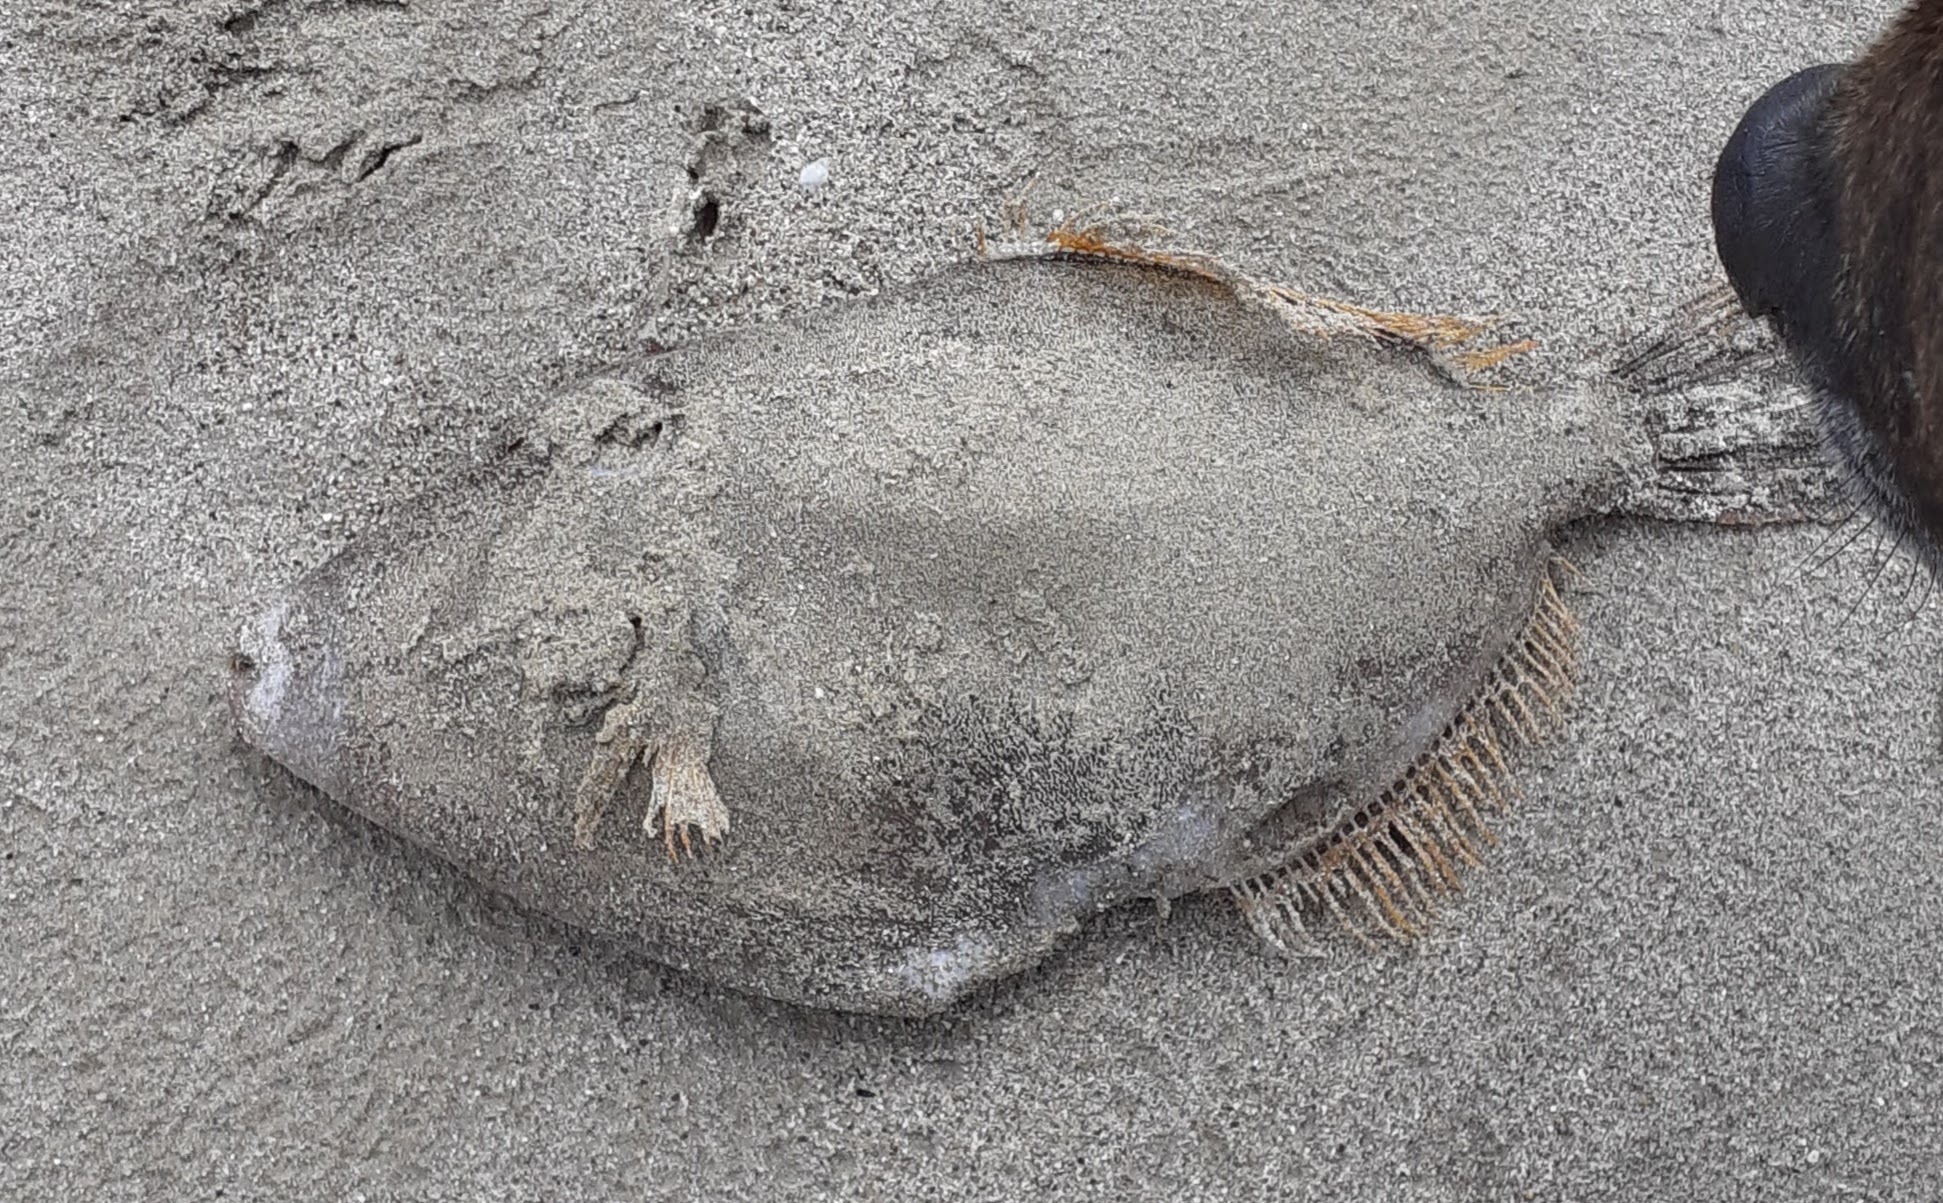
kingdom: Animalia
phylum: Chordata
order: Tetraodontiformes
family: Monacanthidae
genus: Meuschenia
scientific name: Meuschenia scaber
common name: Cosmopolitan leatherjacket
